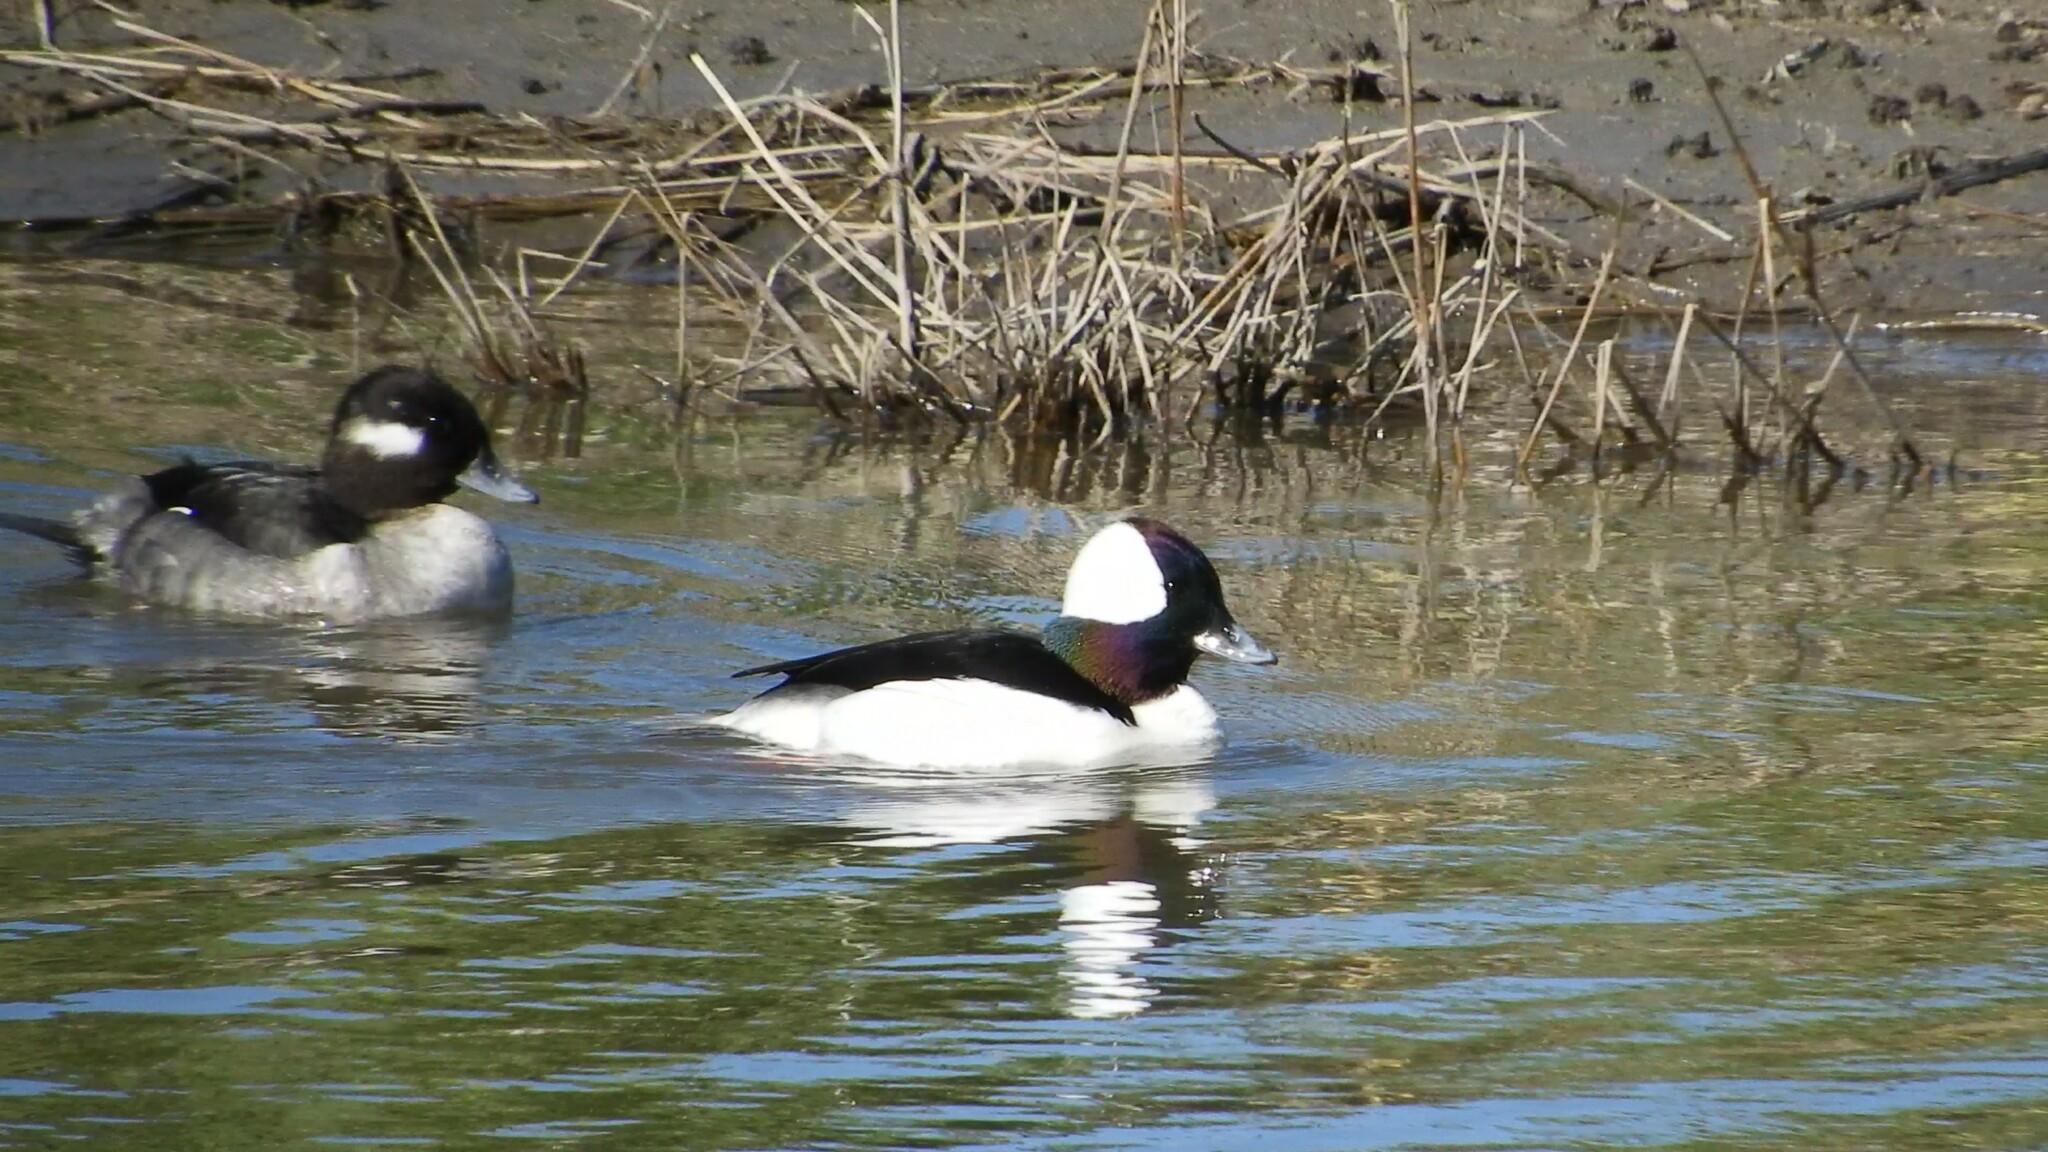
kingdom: Animalia
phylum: Chordata
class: Aves
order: Anseriformes
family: Anatidae
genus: Bucephala
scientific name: Bucephala albeola
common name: Bufflehead
